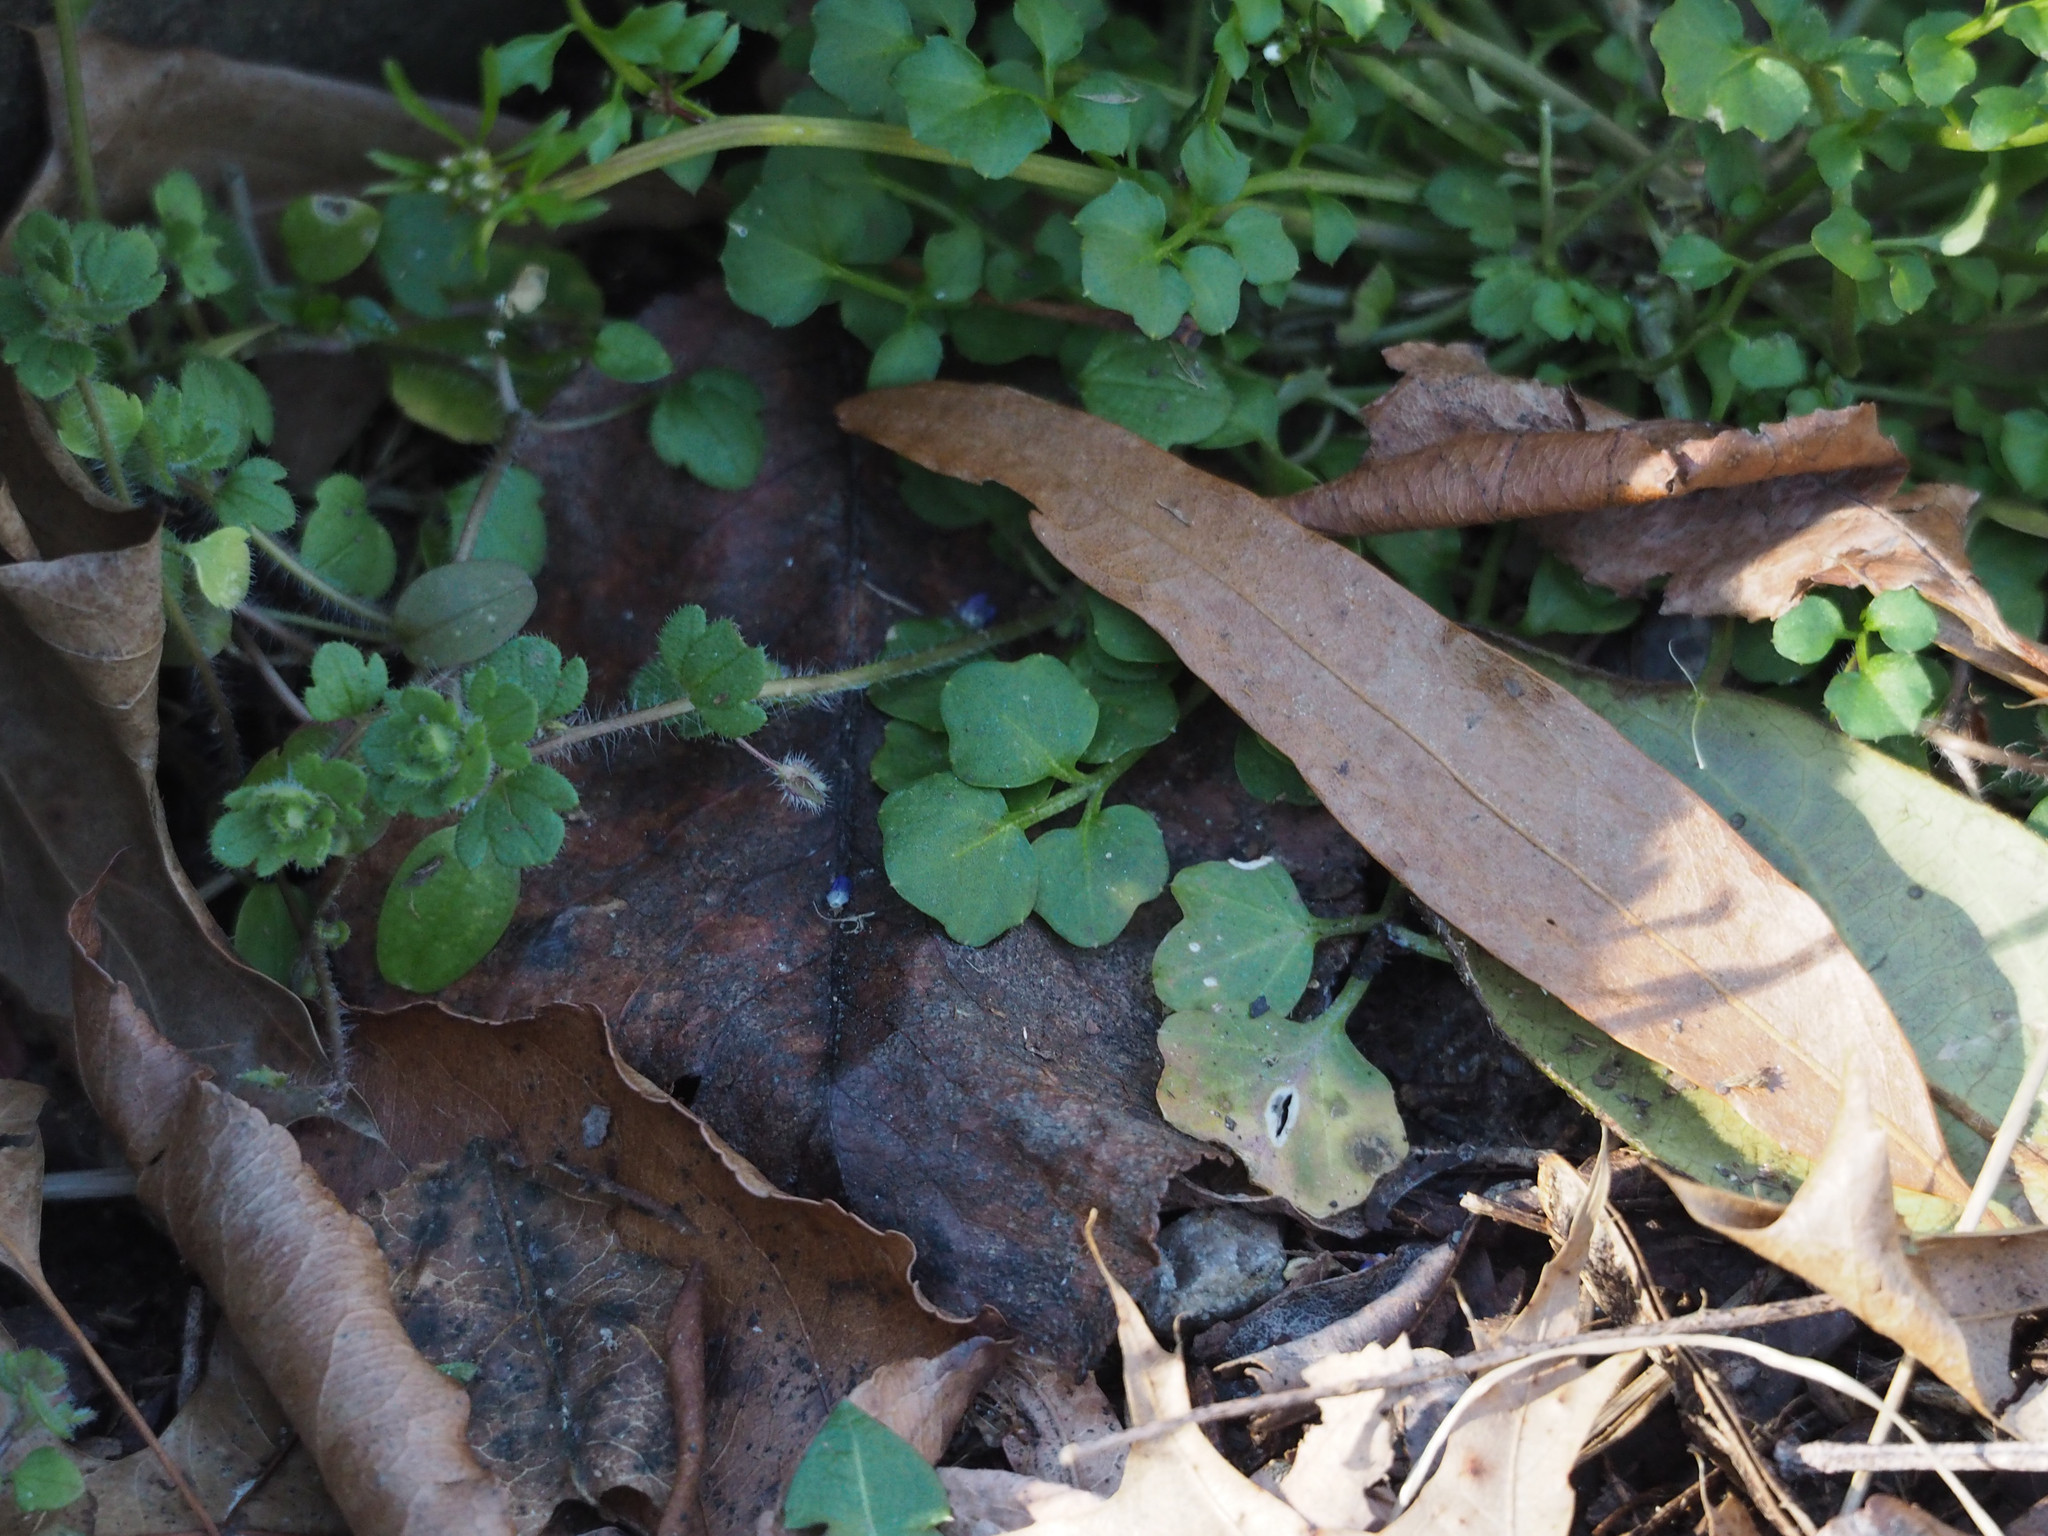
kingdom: Plantae
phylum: Tracheophyta
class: Magnoliopsida
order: Brassicales
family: Brassicaceae
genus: Cardamine
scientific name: Cardamine hirsuta
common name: Hairy bittercress
